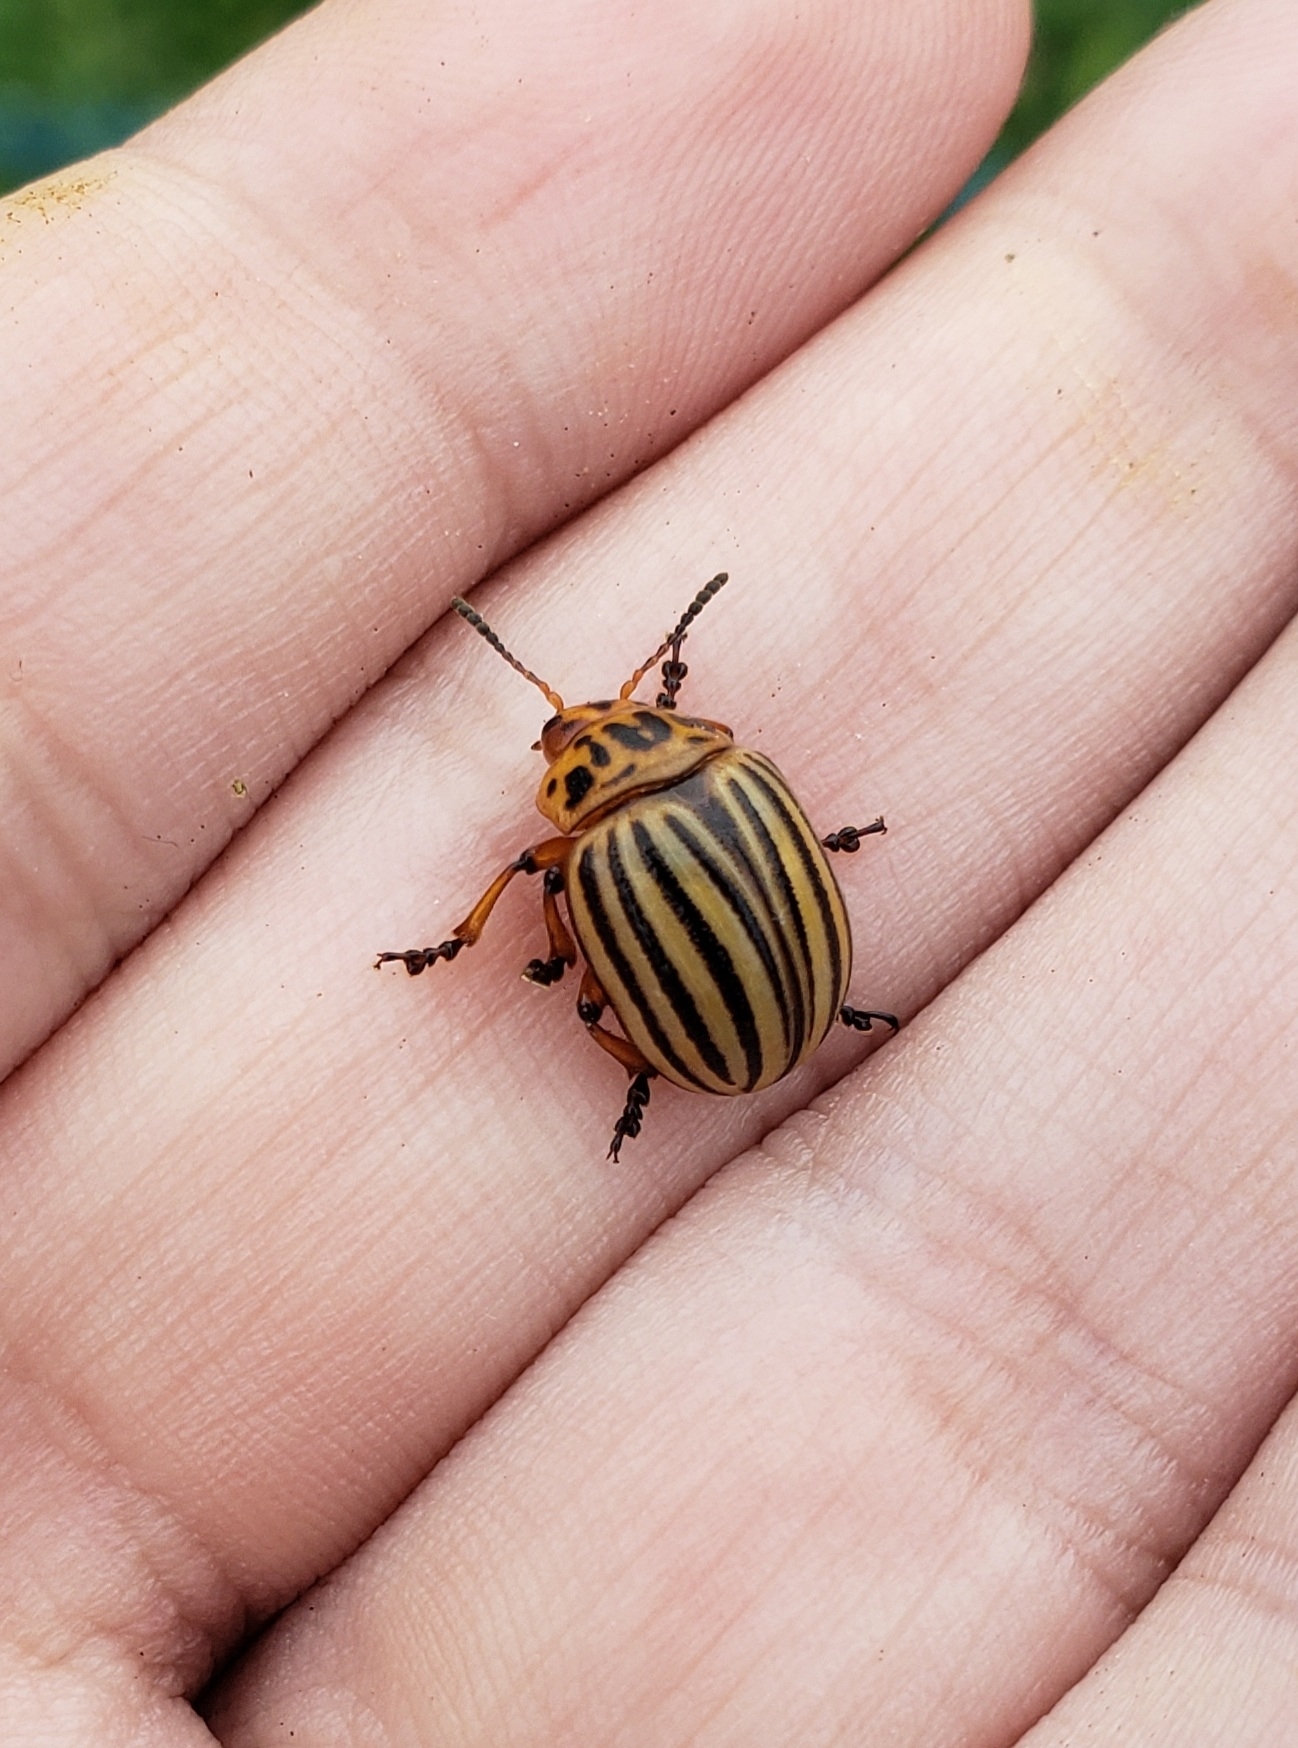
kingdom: Animalia
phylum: Arthropoda
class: Insecta
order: Coleoptera
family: Chrysomelidae
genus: Leptinotarsa
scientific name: Leptinotarsa decemlineata
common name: Colorado potato beetle
